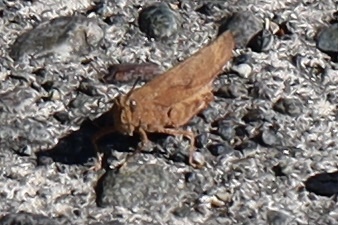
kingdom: Animalia
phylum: Arthropoda
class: Insecta
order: Orthoptera
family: Acrididae
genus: Dissosteira
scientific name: Dissosteira carolina
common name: Carolina grasshopper
